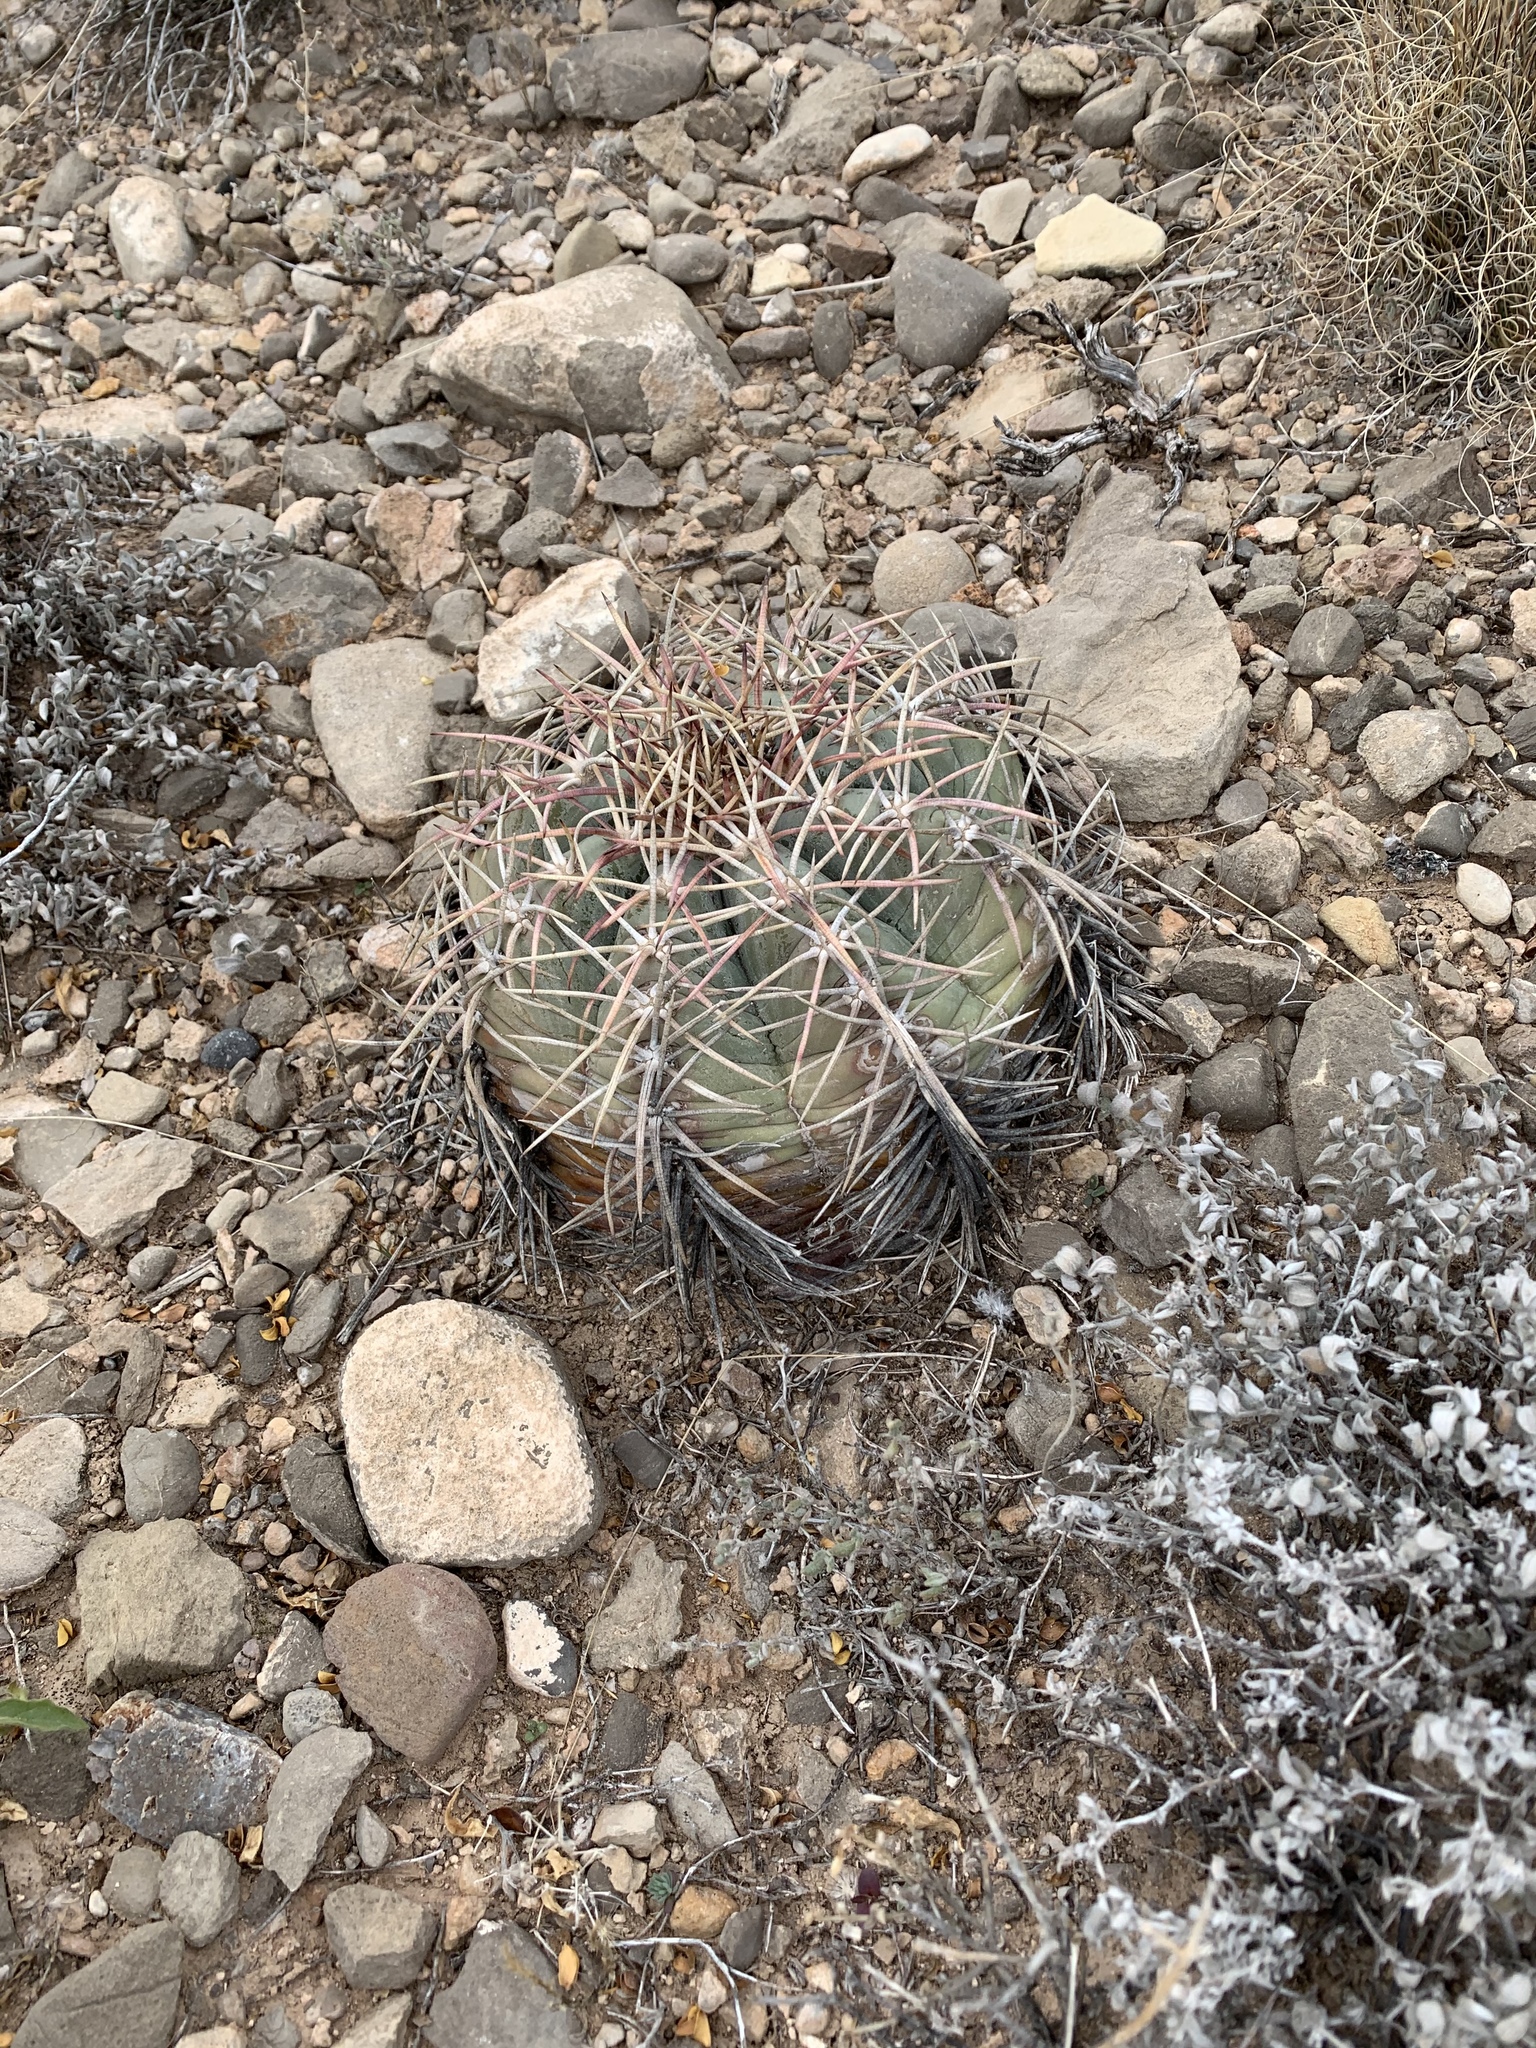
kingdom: Plantae
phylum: Tracheophyta
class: Magnoliopsida
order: Caryophyllales
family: Cactaceae
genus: Echinocactus
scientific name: Echinocactus horizonthalonius
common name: Devilshead
